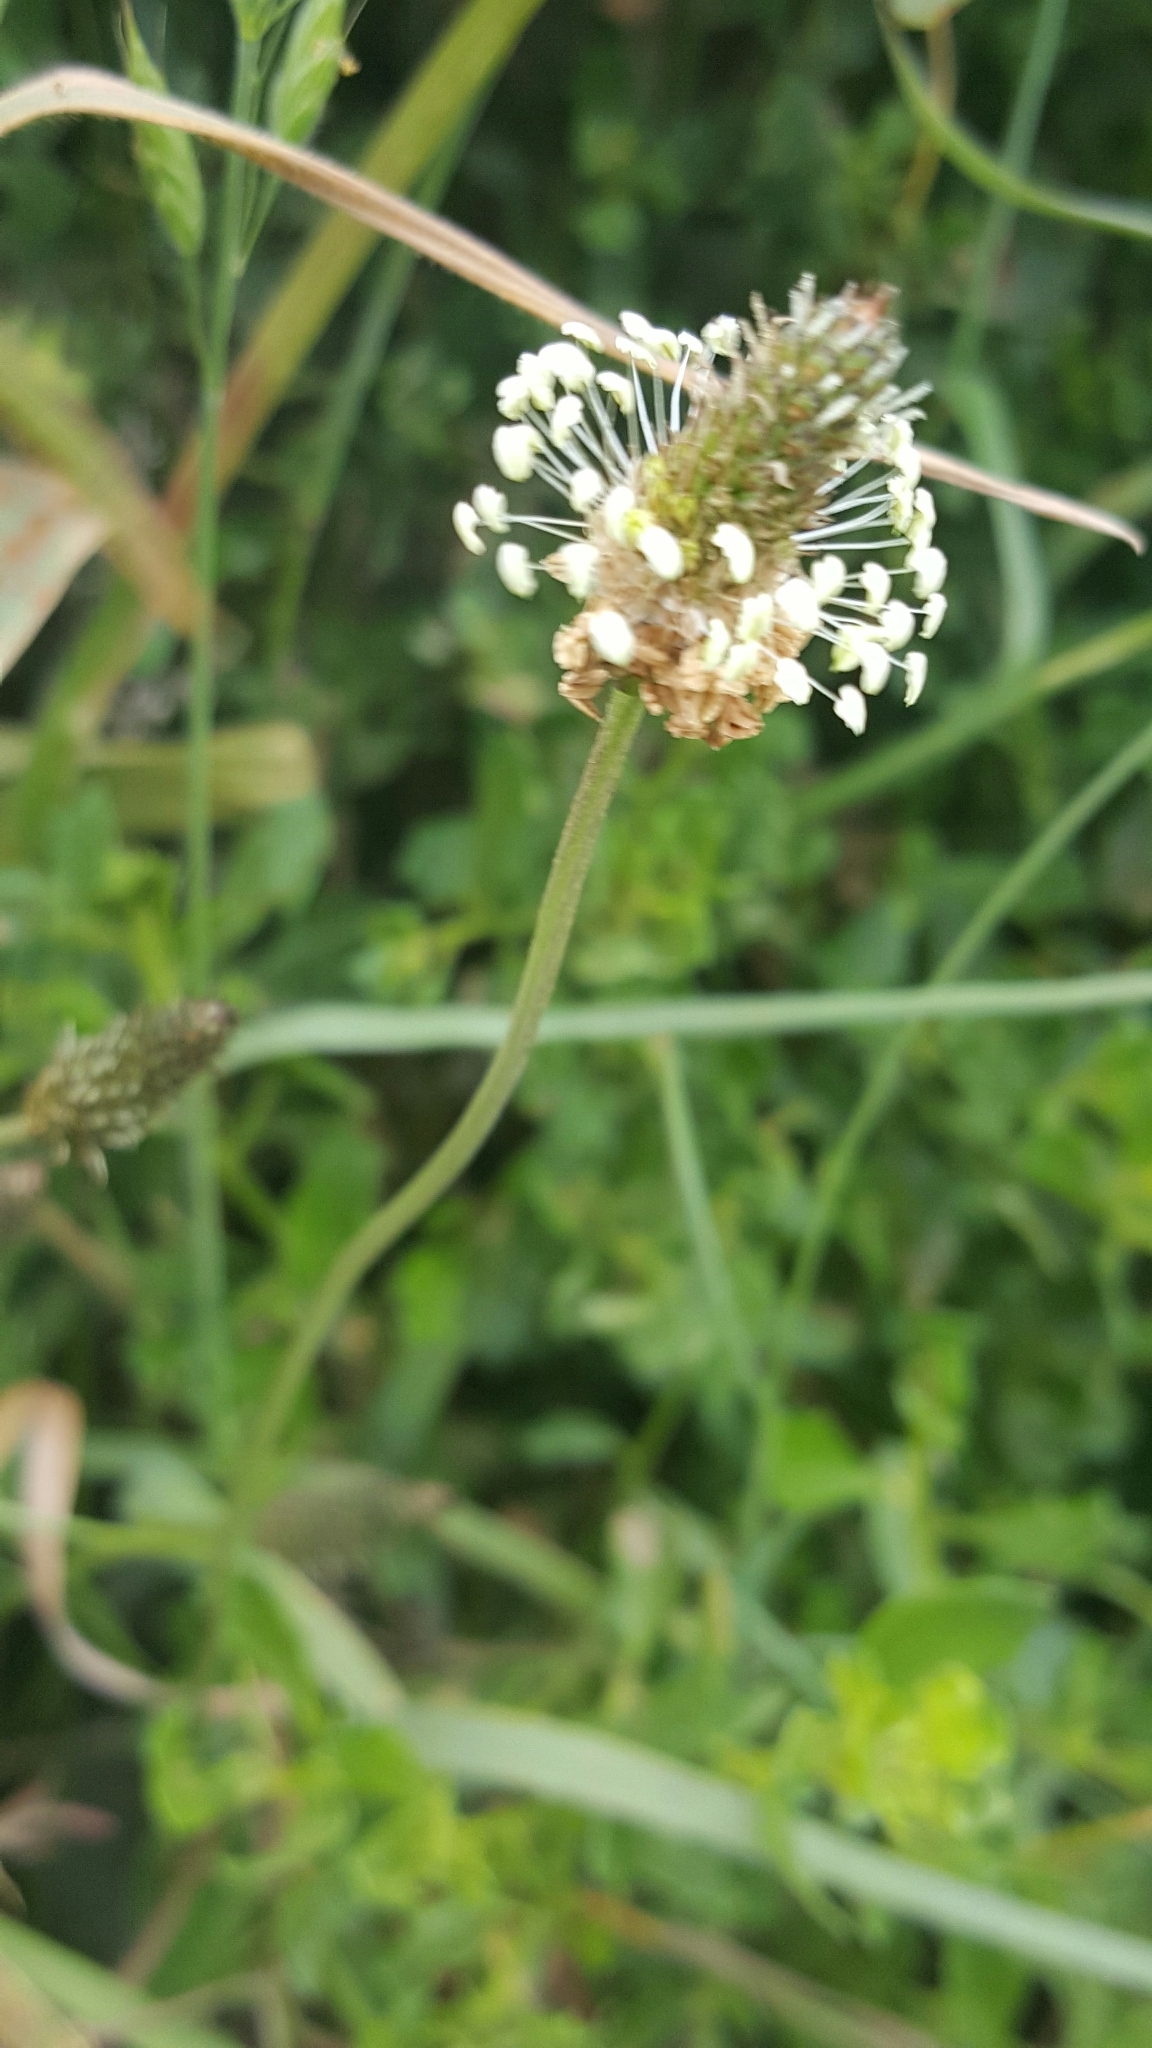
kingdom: Plantae
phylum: Tracheophyta
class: Magnoliopsida
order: Lamiales
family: Plantaginaceae
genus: Plantago
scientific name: Plantago lanceolata
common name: Ribwort plantain
